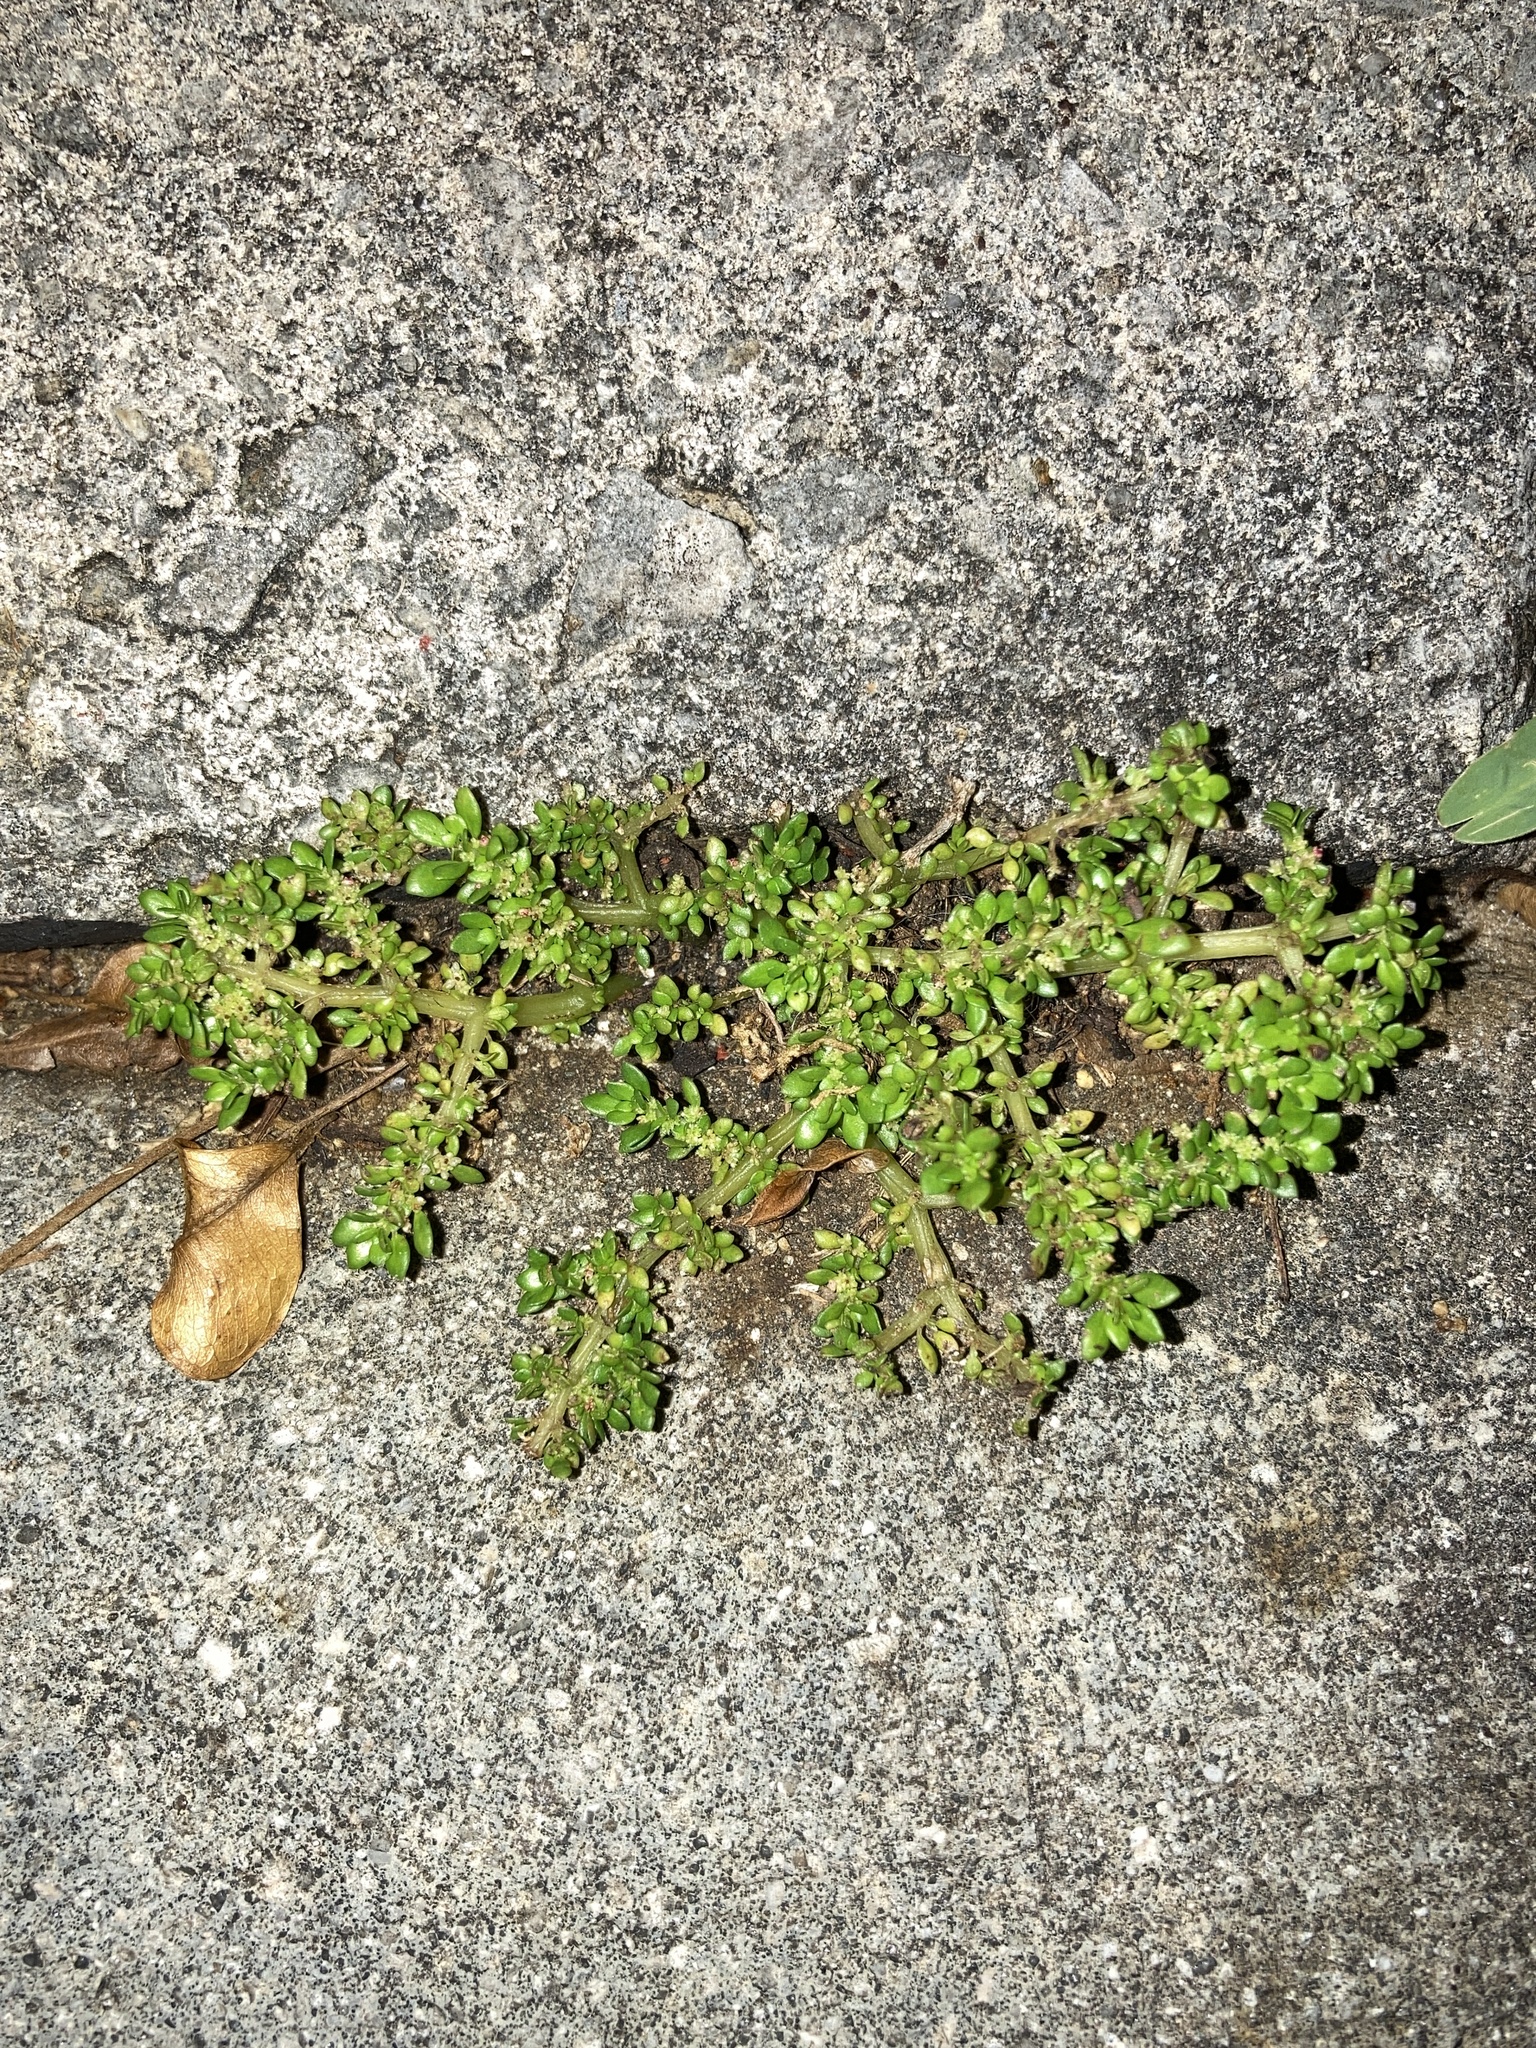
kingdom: Plantae
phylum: Tracheophyta
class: Magnoliopsida
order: Rosales
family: Urticaceae
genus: Pilea
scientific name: Pilea microphylla
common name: Artillery-plant
